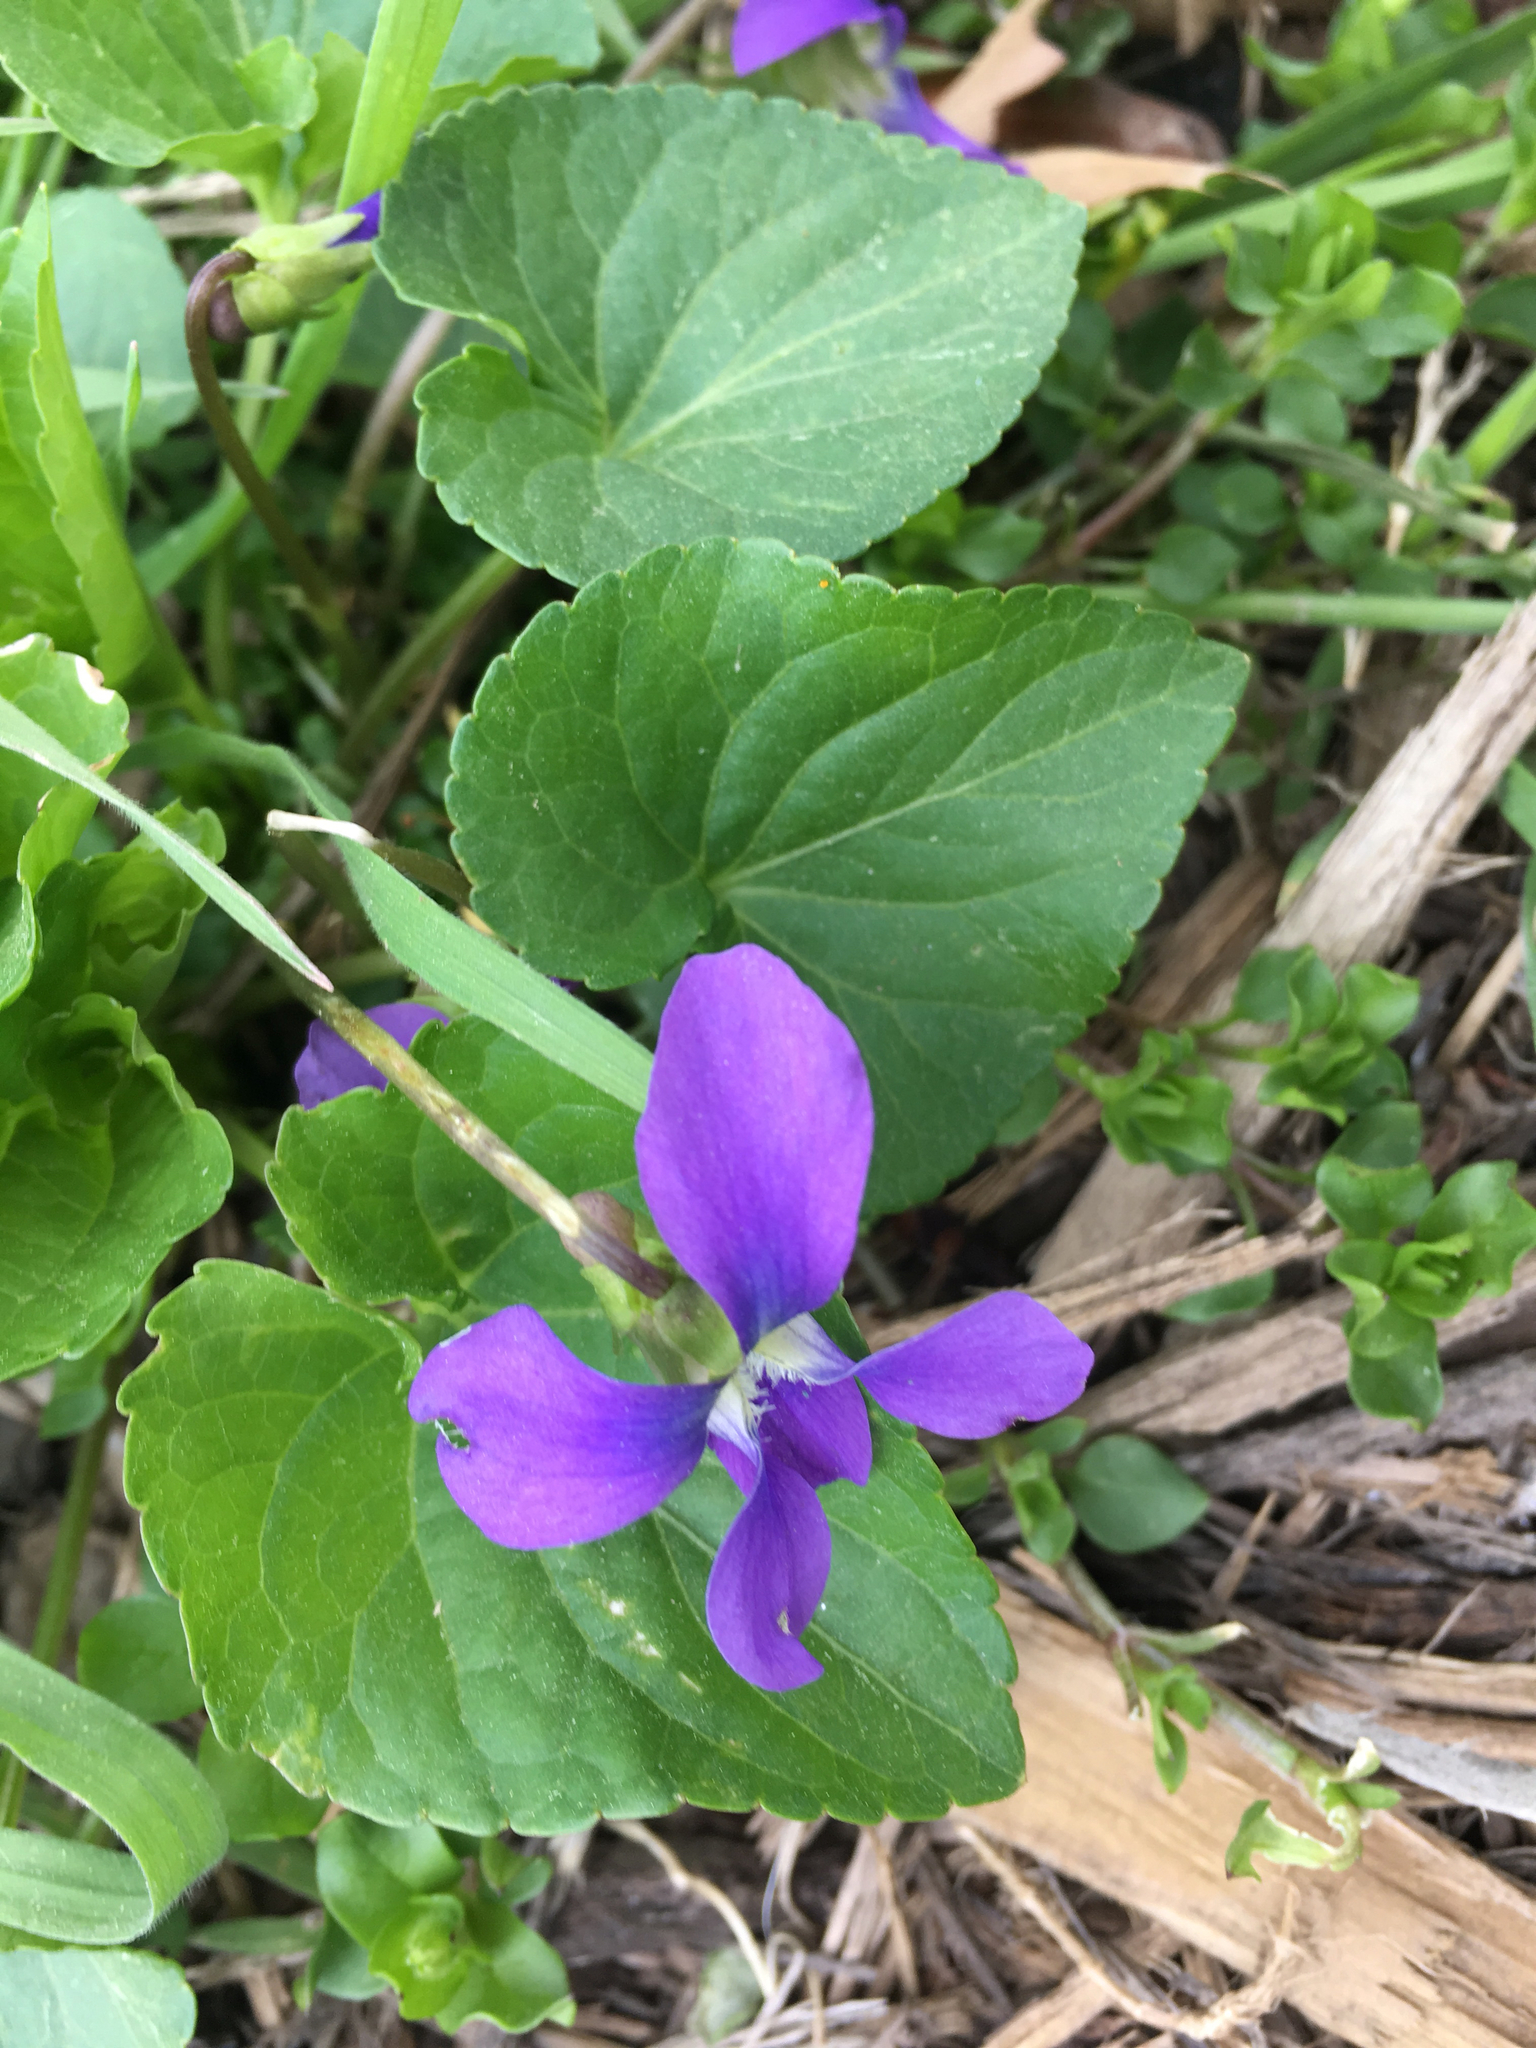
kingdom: Plantae
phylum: Tracheophyta
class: Magnoliopsida
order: Malpighiales
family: Violaceae
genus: Viola
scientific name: Viola sororia
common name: Dooryard violet
